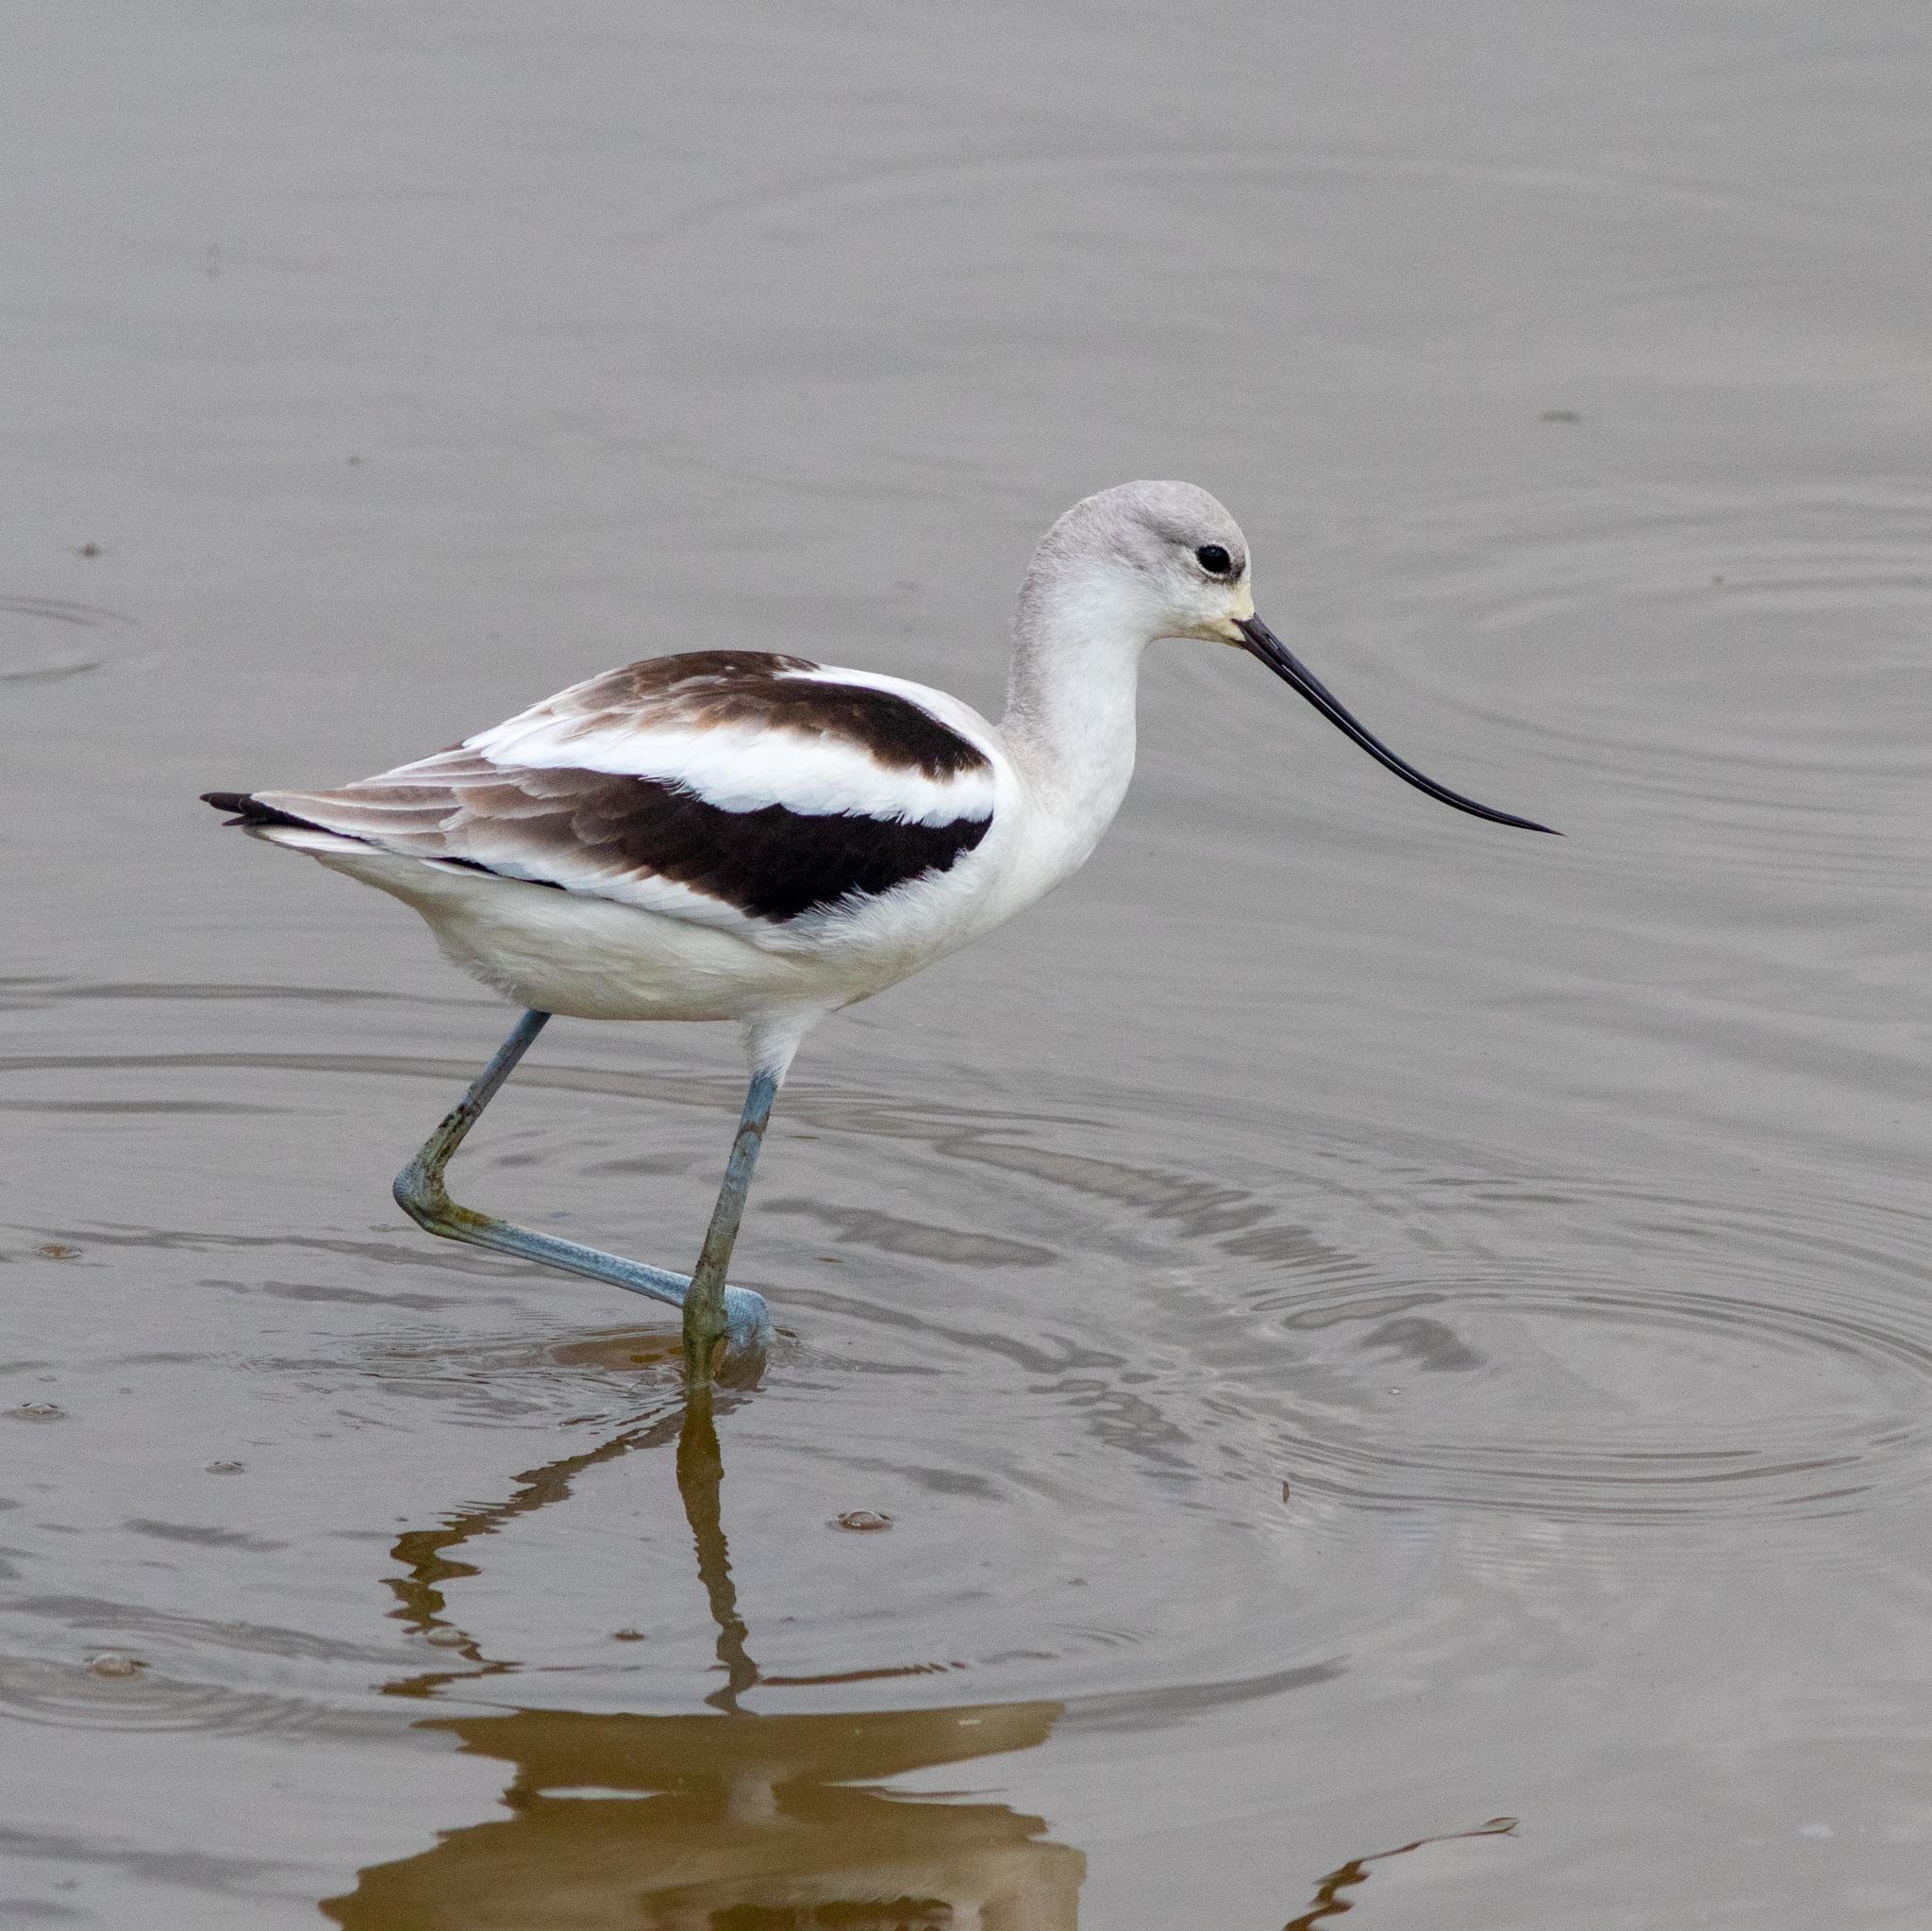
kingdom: Animalia
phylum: Chordata
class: Aves
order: Charadriiformes
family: Recurvirostridae
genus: Recurvirostra
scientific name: Recurvirostra americana
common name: American avocet
